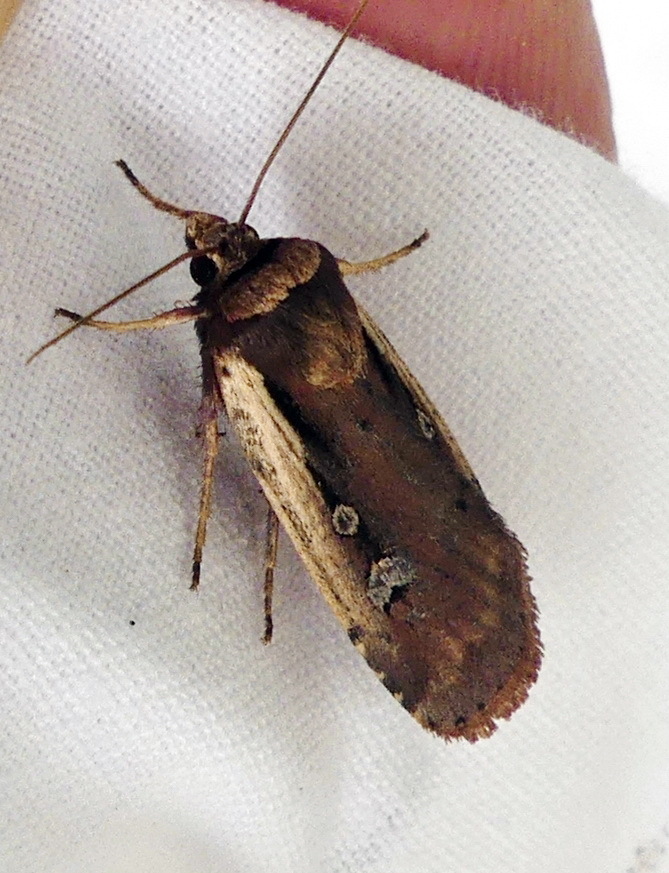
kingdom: Animalia
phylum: Arthropoda
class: Insecta
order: Lepidoptera
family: Noctuidae
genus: Ochropleura
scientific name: Ochropleura implecta
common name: Flame-shouldered dart
